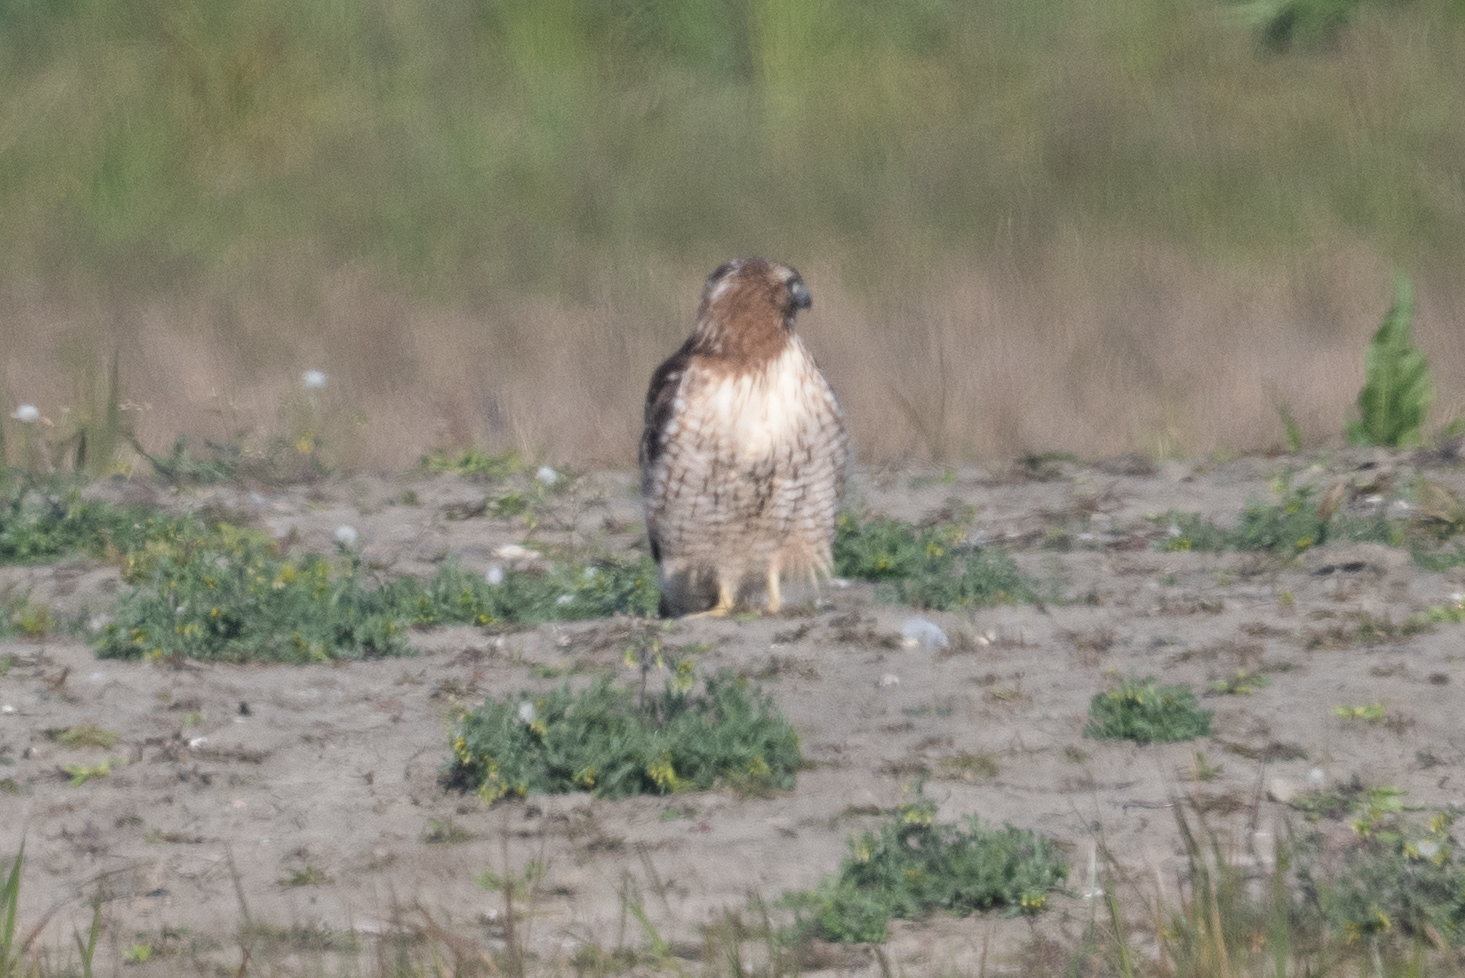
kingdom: Animalia
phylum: Chordata
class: Aves
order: Accipitriformes
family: Accipitridae
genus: Buteo
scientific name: Buteo jamaicensis
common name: Red-tailed hawk
